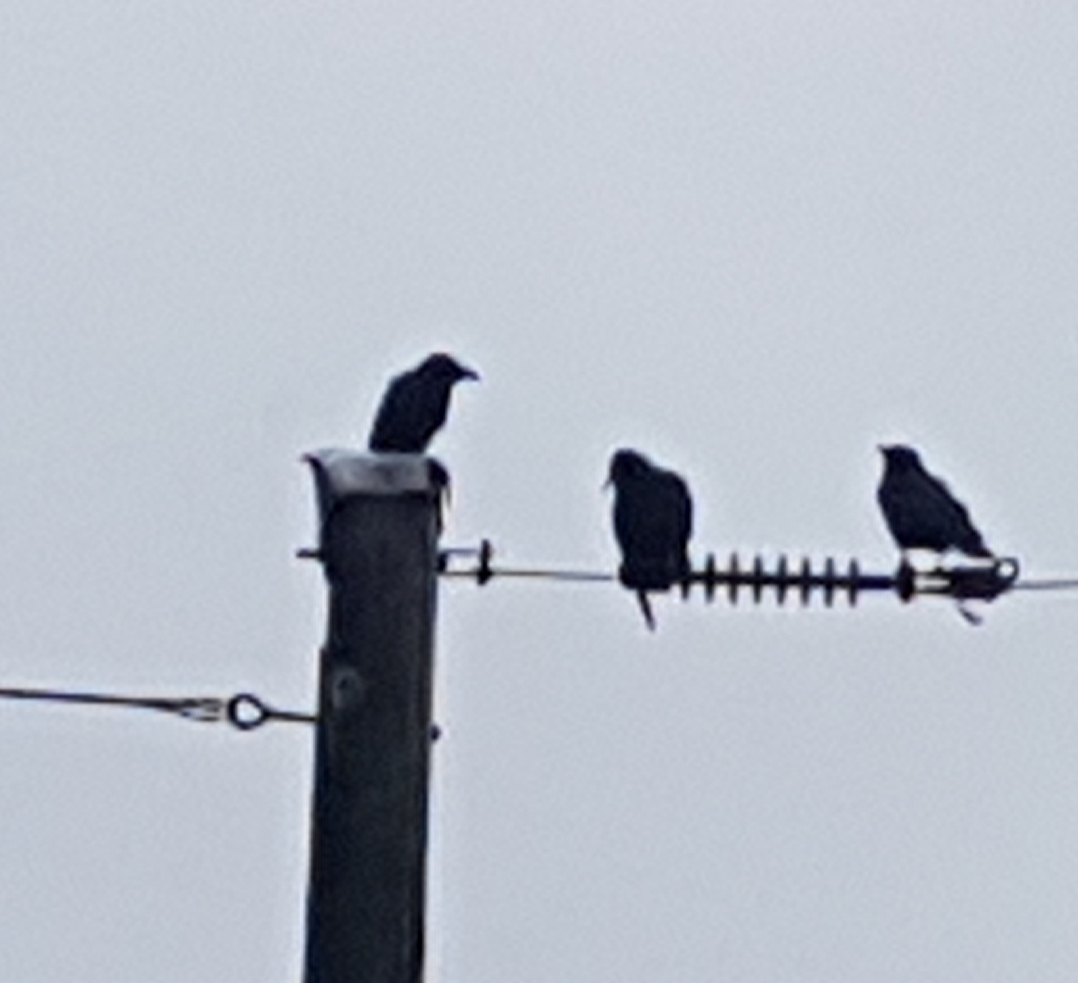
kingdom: Animalia
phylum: Chordata
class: Aves
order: Passeriformes
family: Corvidae
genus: Corvus
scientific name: Corvus brachyrhynchos
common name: American crow
